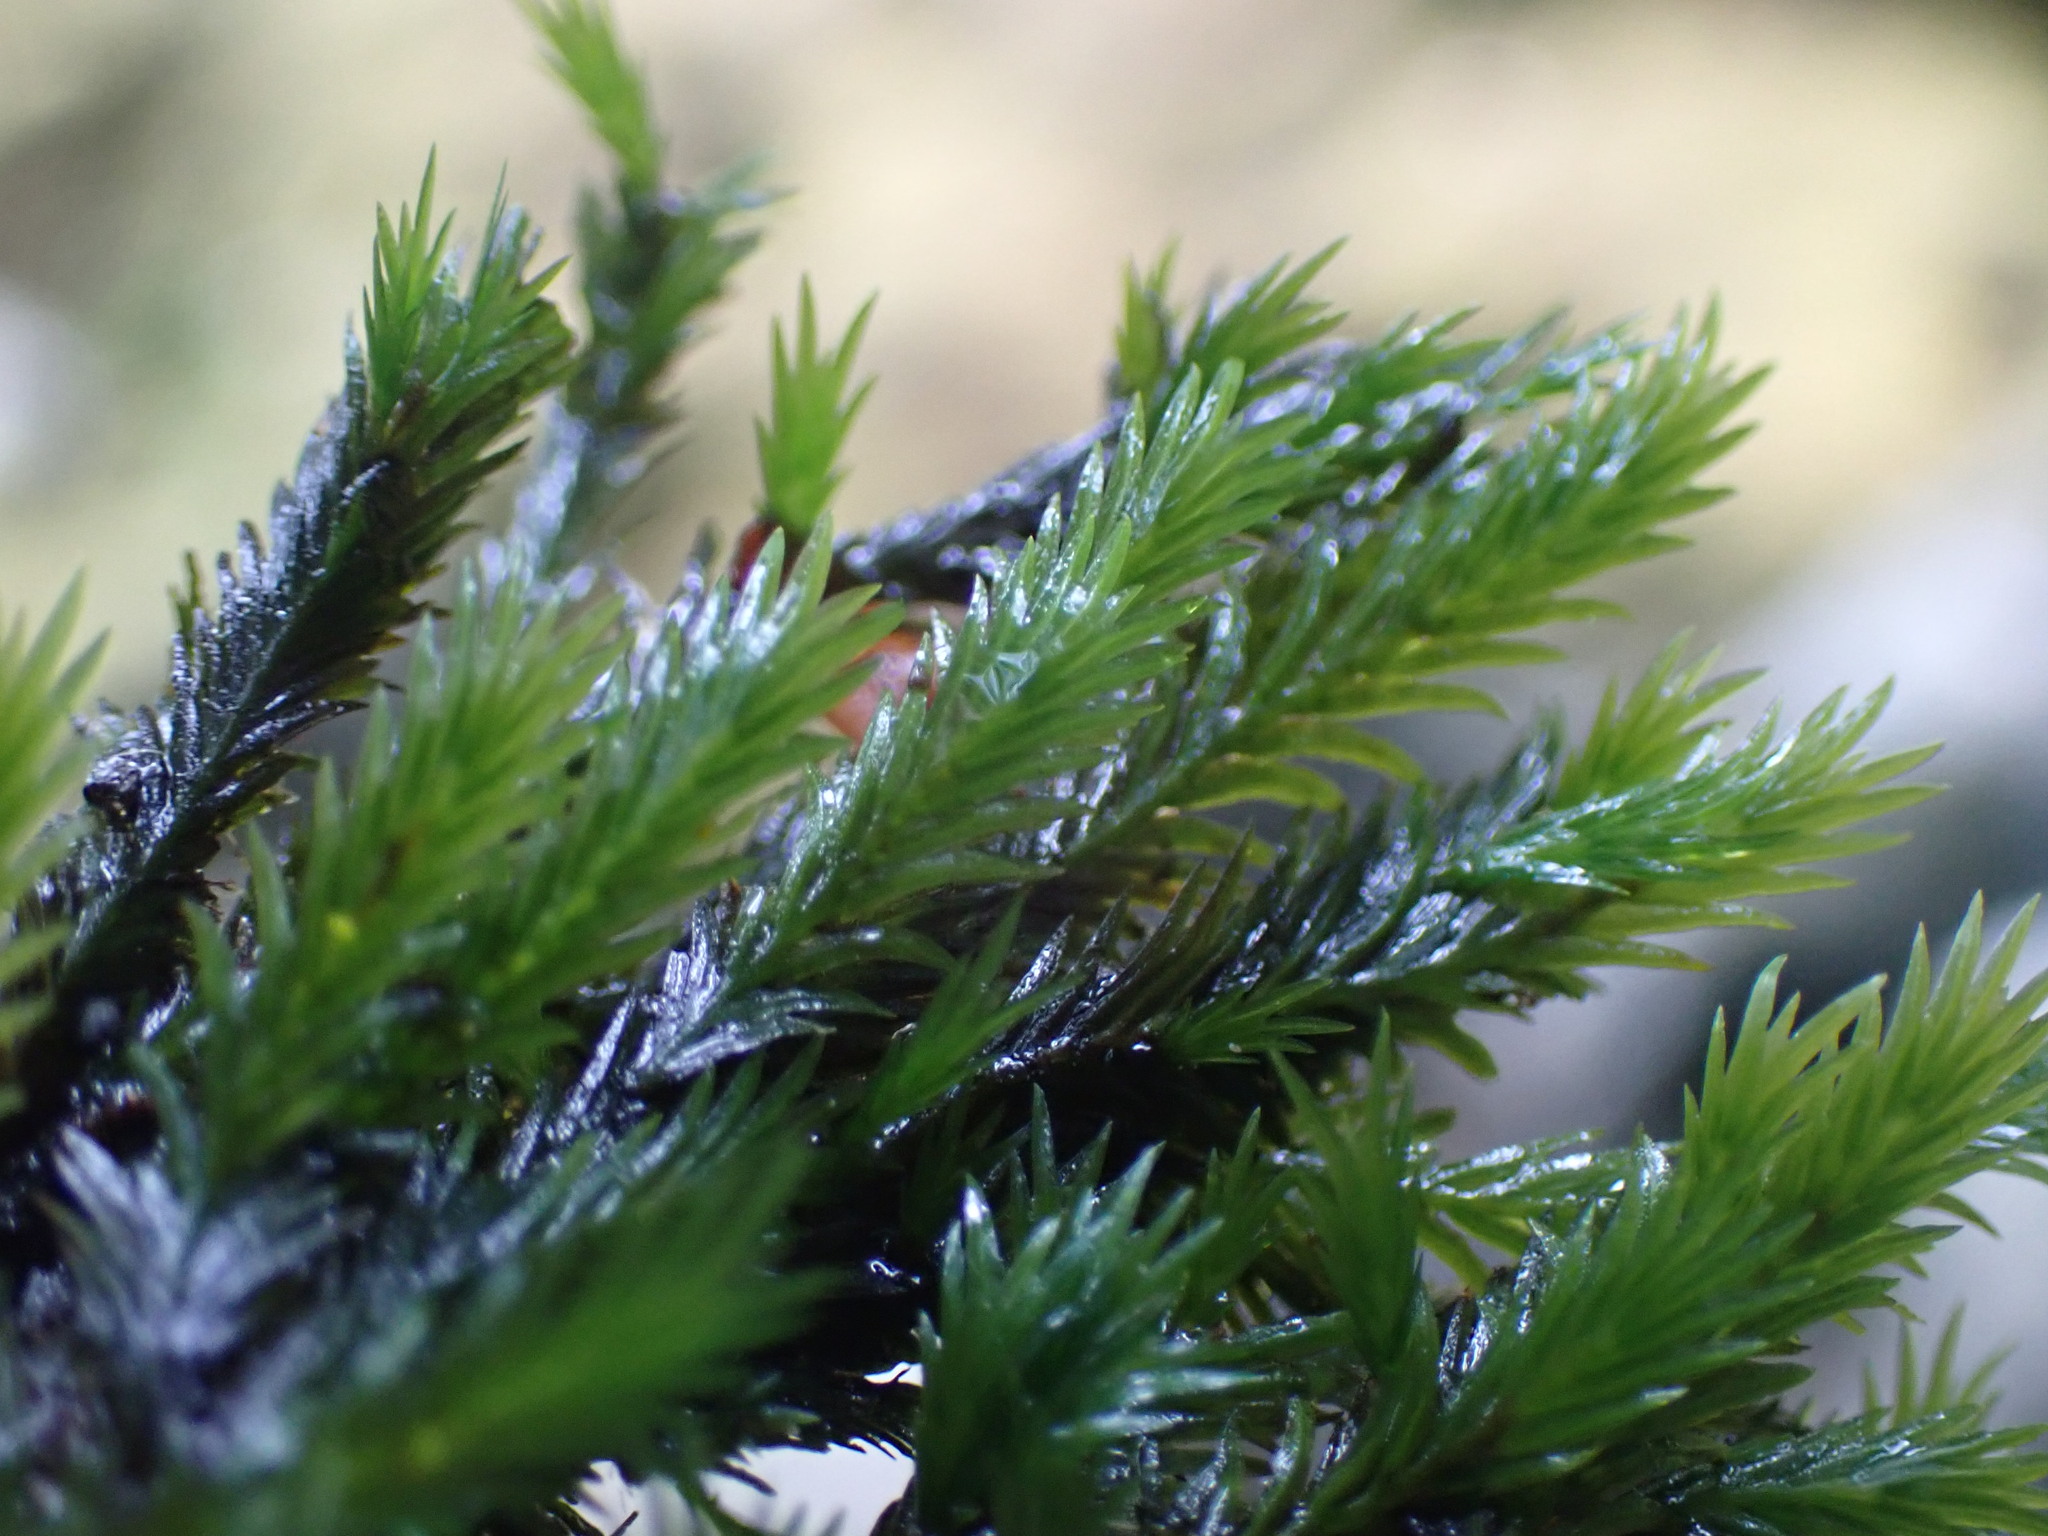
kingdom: Plantae
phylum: Bryophyta
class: Bryopsida
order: Dicranales
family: Fissidentaceae
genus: Fissidens
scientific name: Fissidens grandifrons
